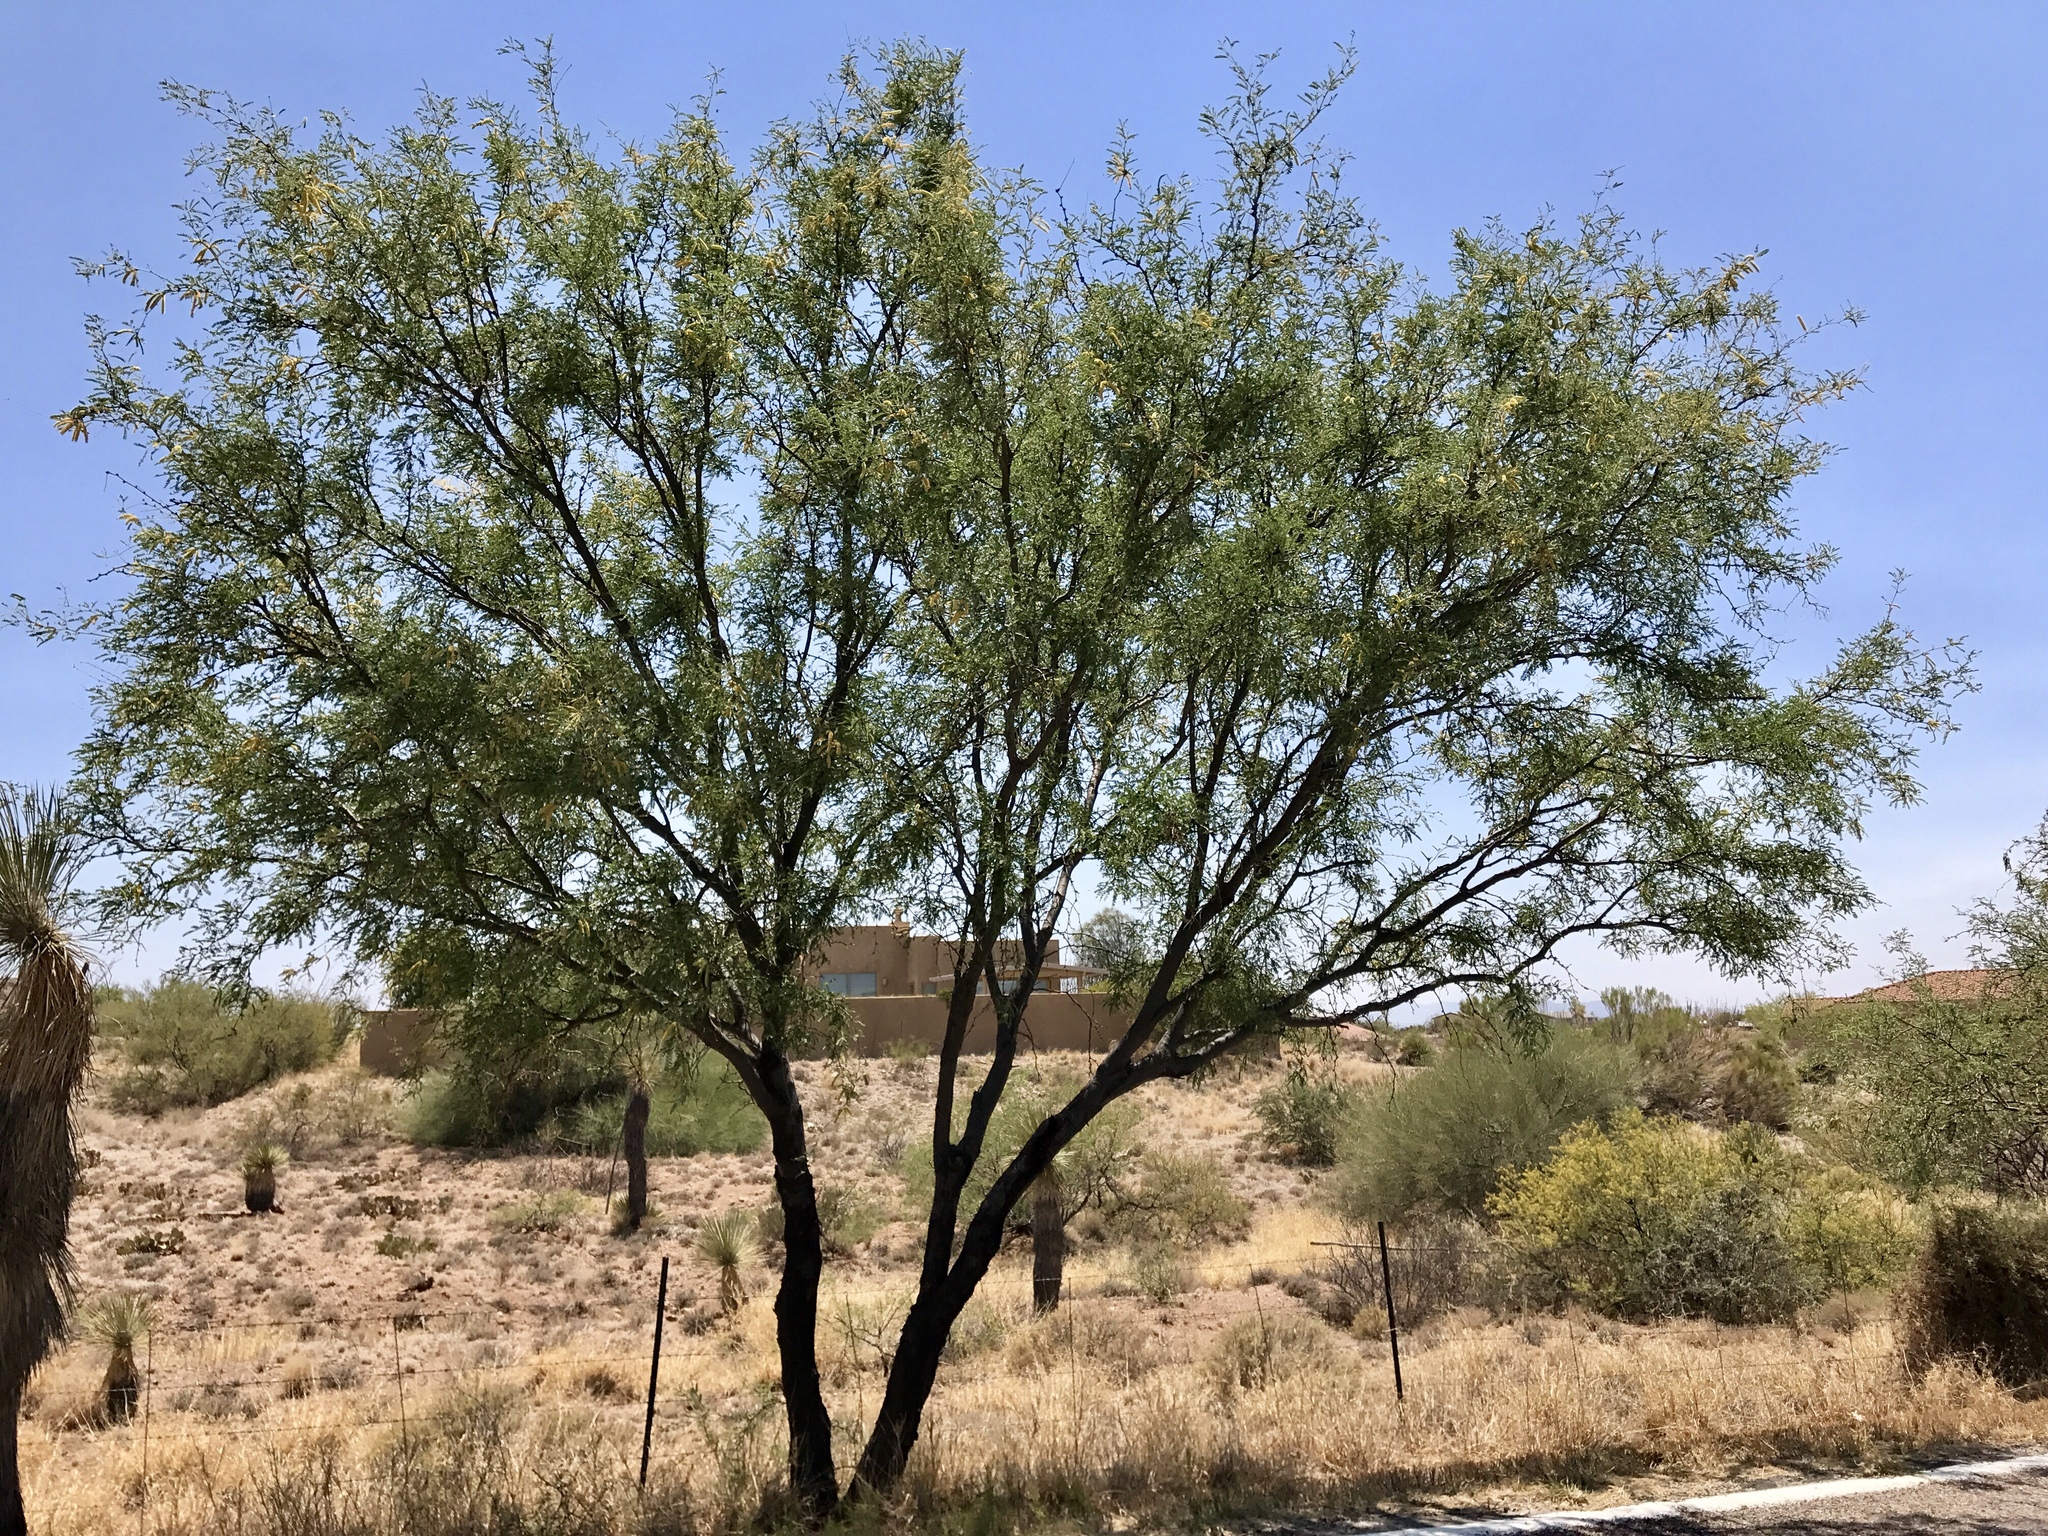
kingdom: Plantae
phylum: Tracheophyta
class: Magnoliopsida
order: Fabales
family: Fabaceae
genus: Prosopis
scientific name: Prosopis velutina
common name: Velvet mesquite
